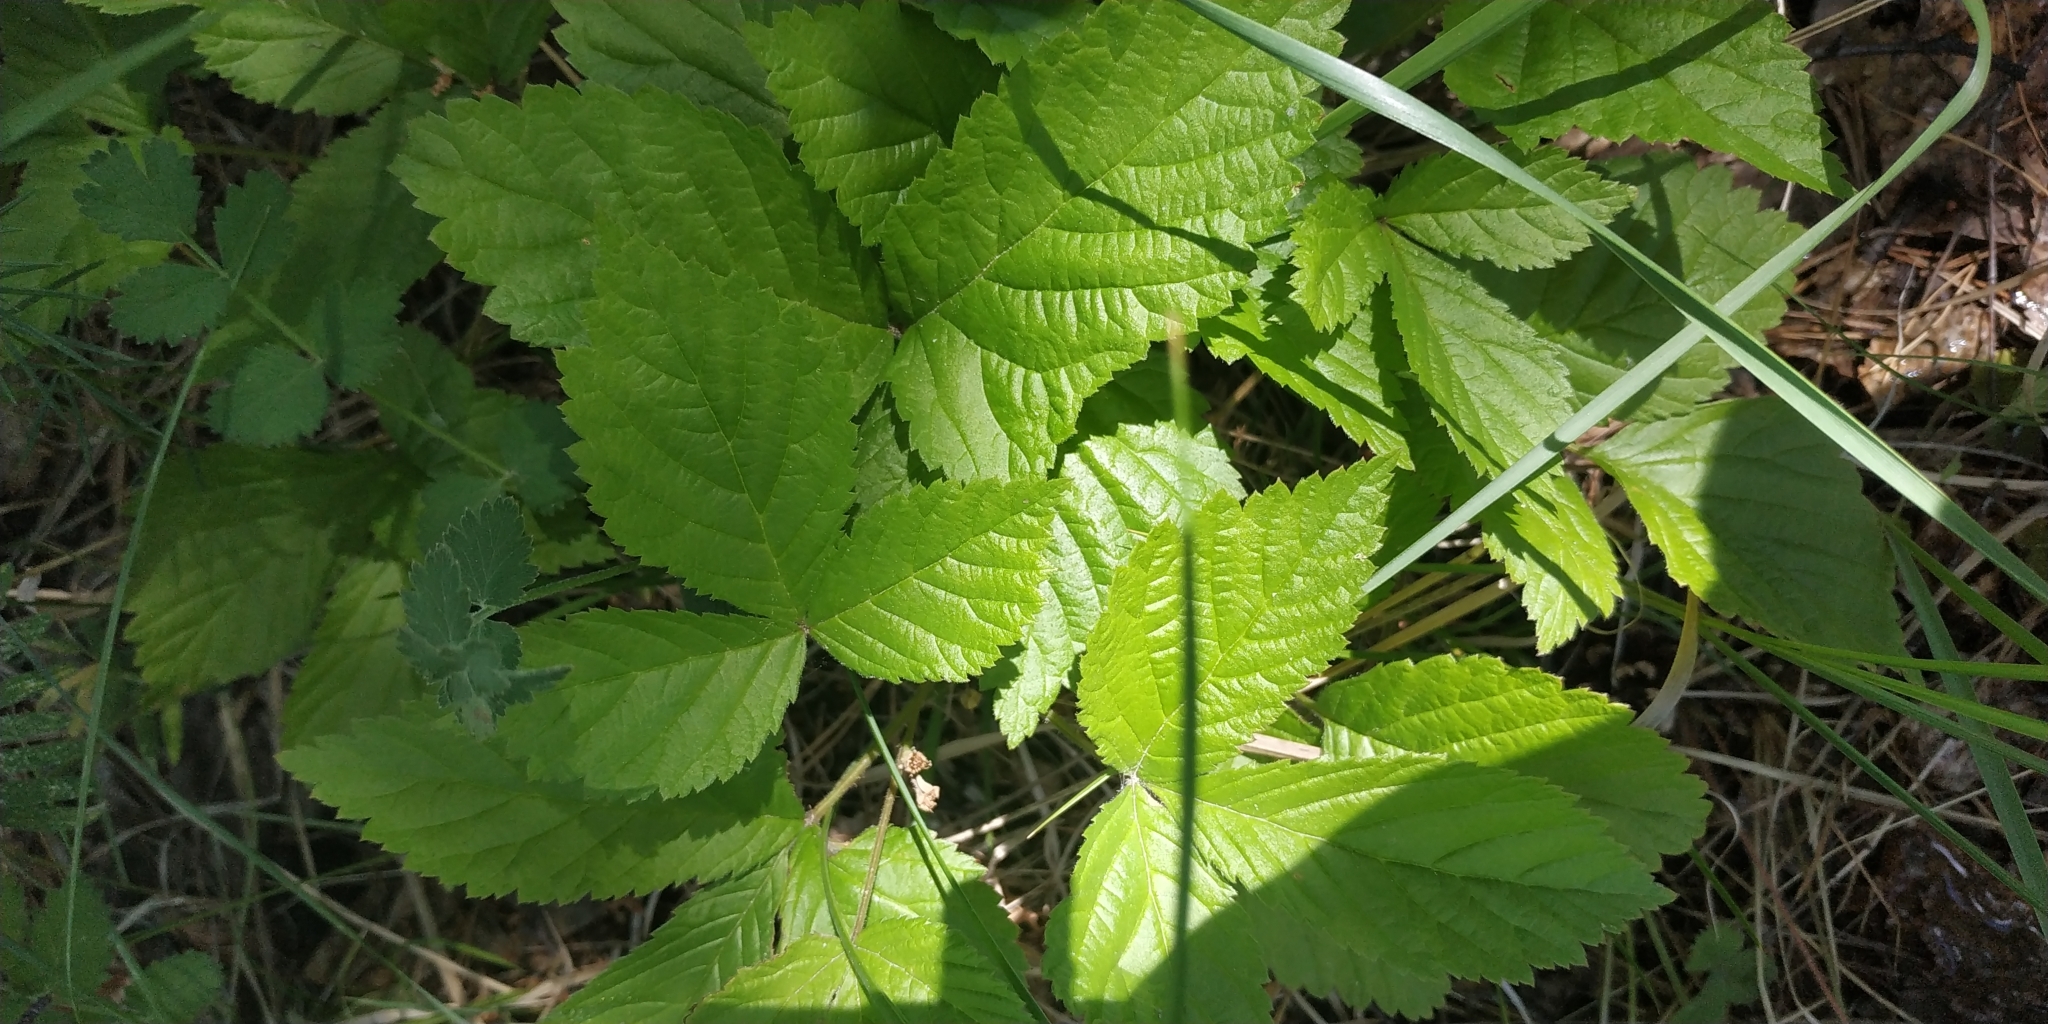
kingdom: Plantae
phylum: Tracheophyta
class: Magnoliopsida
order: Rosales
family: Rosaceae
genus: Rubus
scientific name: Rubus saxatilis
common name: Stone bramble
